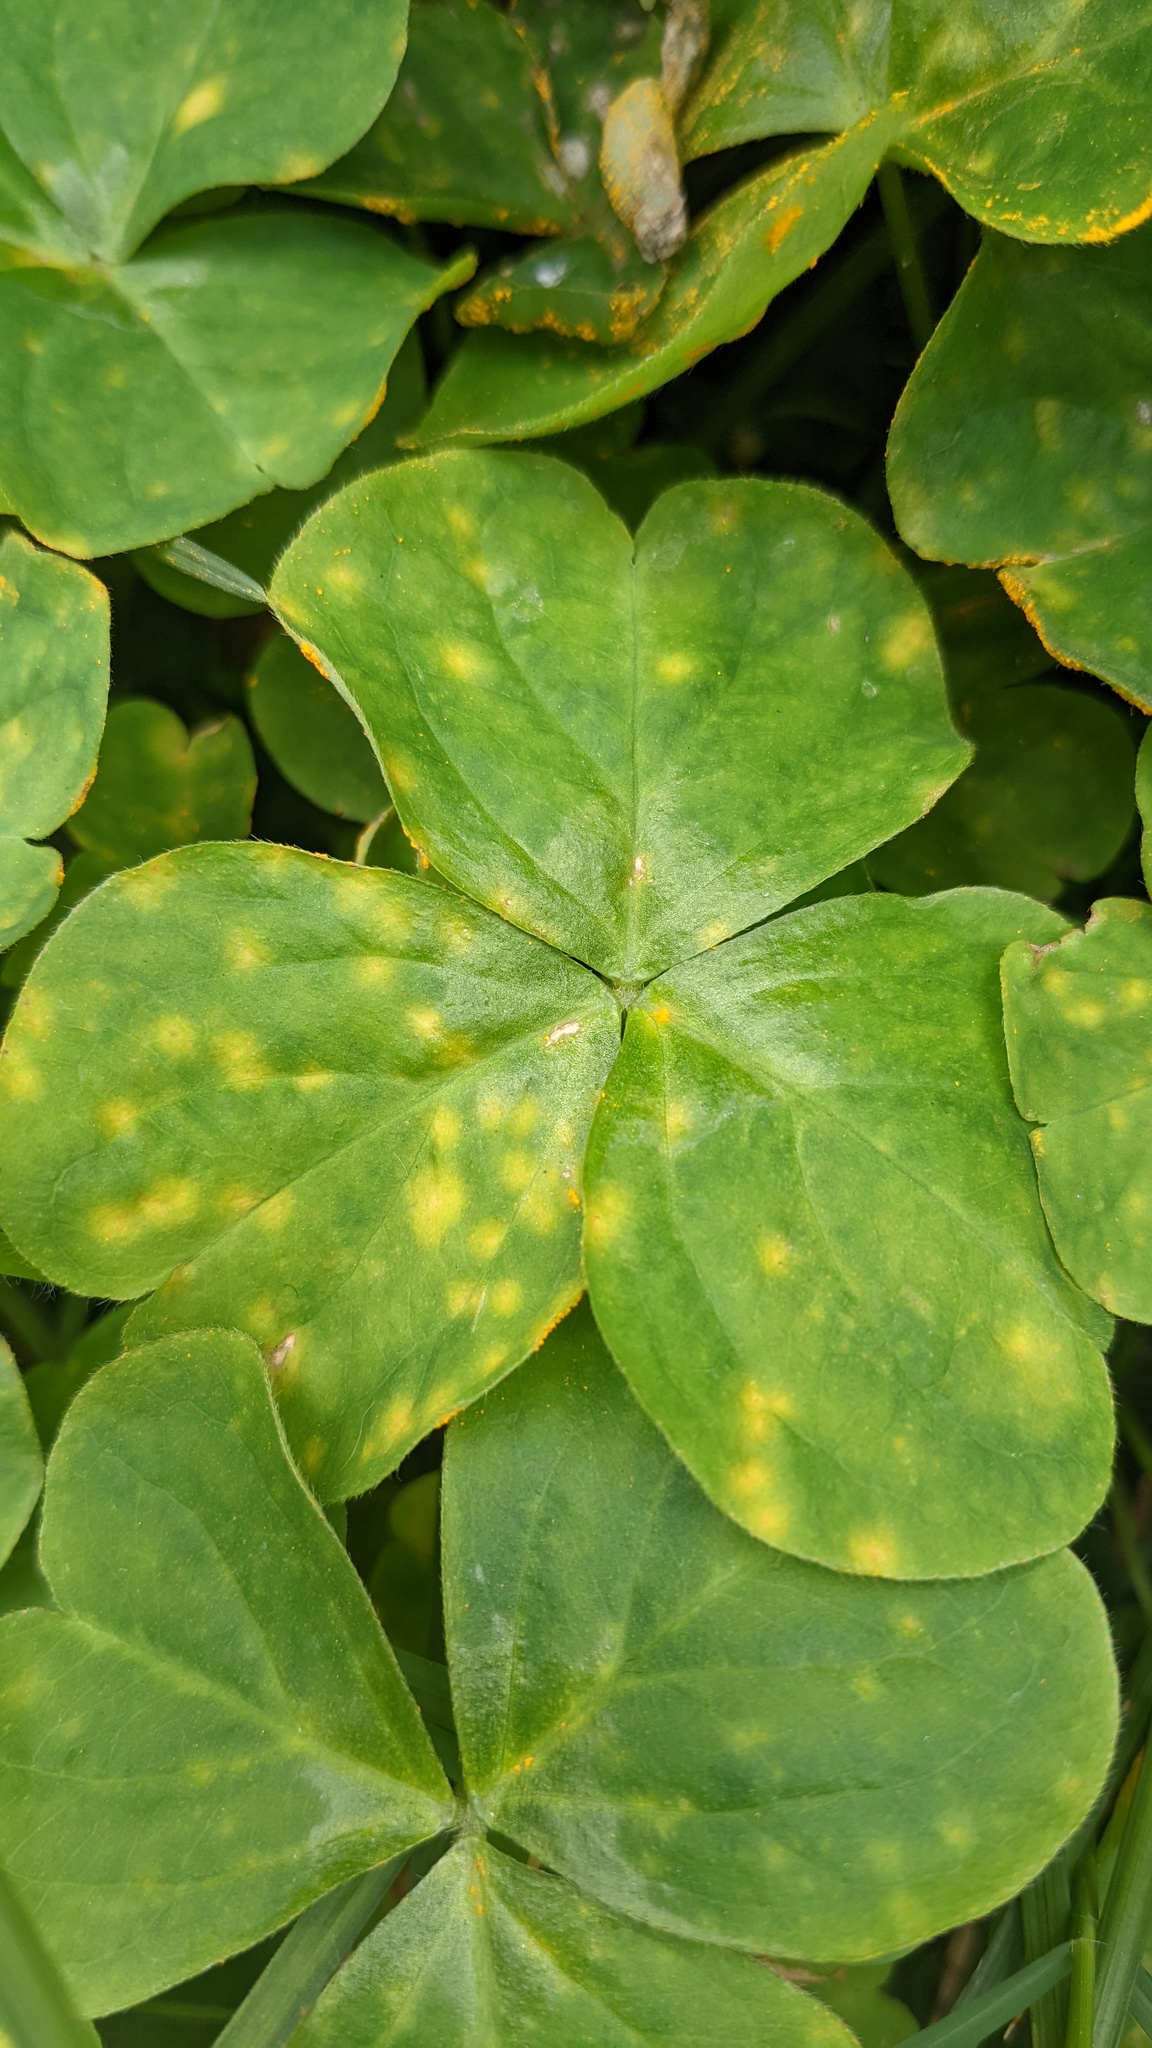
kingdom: Fungi
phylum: Basidiomycota
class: Pucciniomycetes
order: Pucciniales
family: Pucciniaceae
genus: Puccinia
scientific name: Puccinia oxalidis
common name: Oxalis rust
